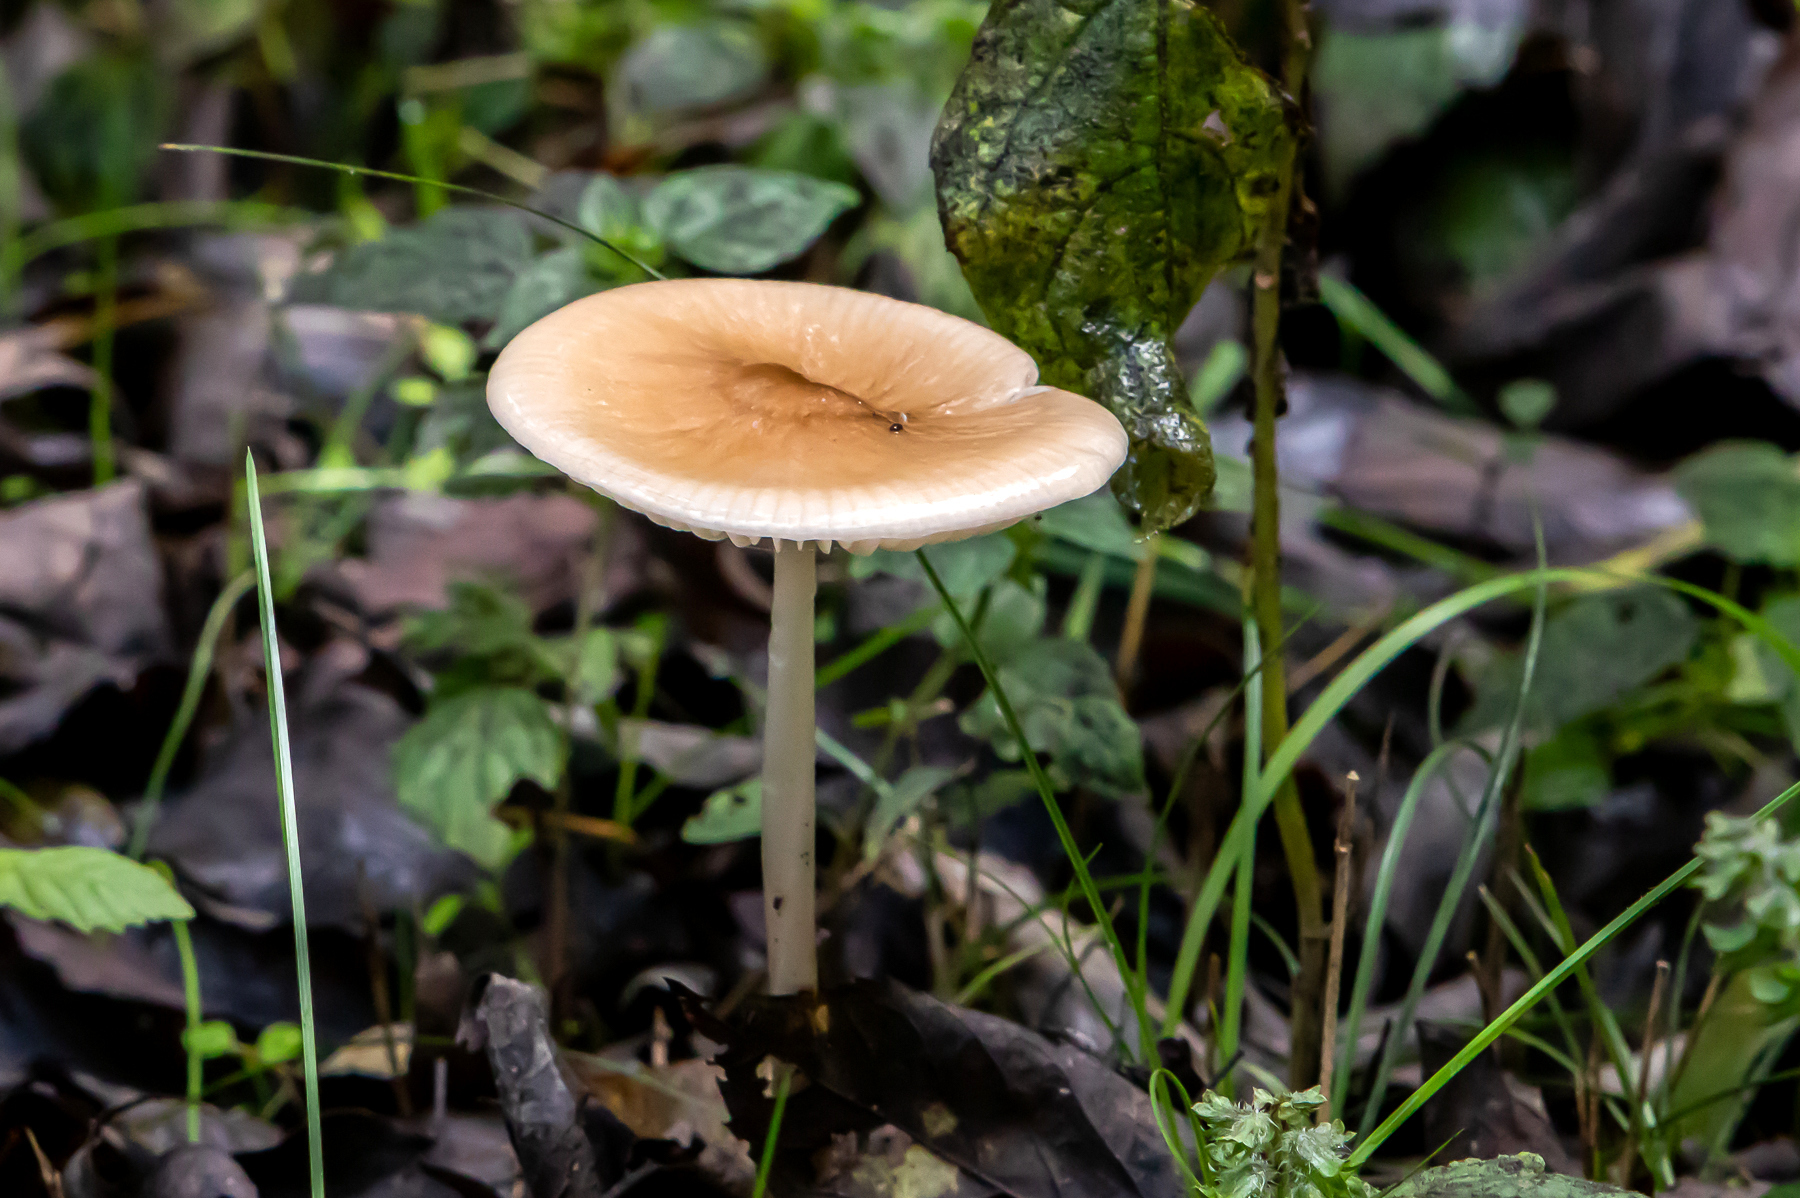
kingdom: Fungi
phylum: Basidiomycota
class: Agaricomycetes
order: Agaricales
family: Amanitaceae
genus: Amanita
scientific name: Amanita fulva
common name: Tawny grisette
